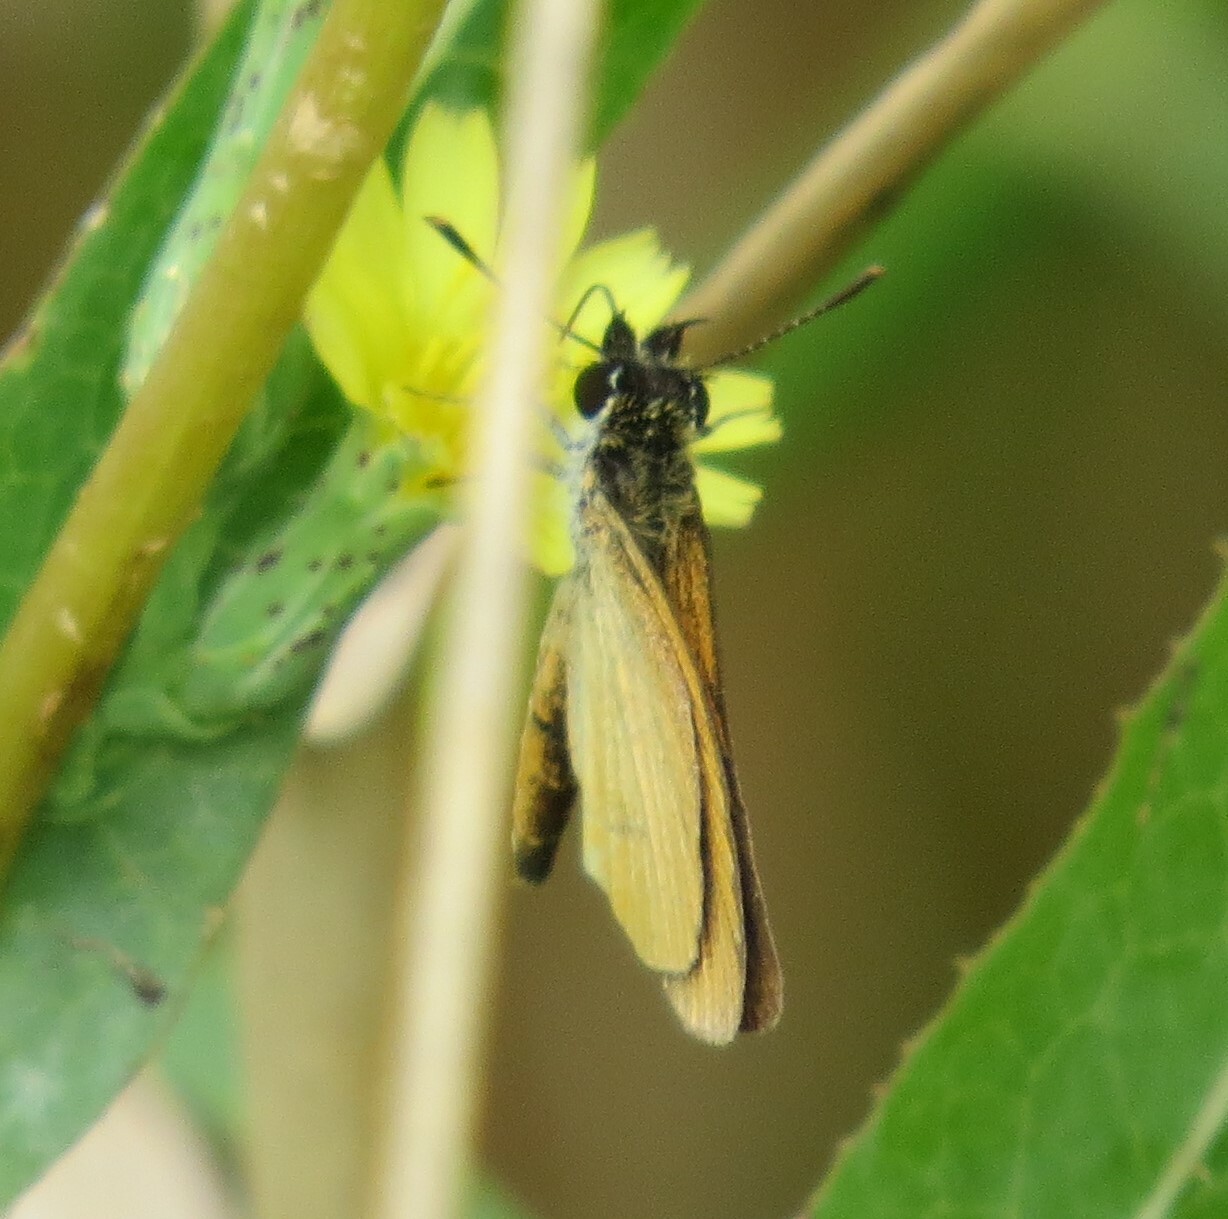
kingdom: Animalia
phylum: Arthropoda
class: Insecta
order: Lepidoptera
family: Hesperiidae
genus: Ancyloxypha
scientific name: Ancyloxypha numitor
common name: Least skipper
